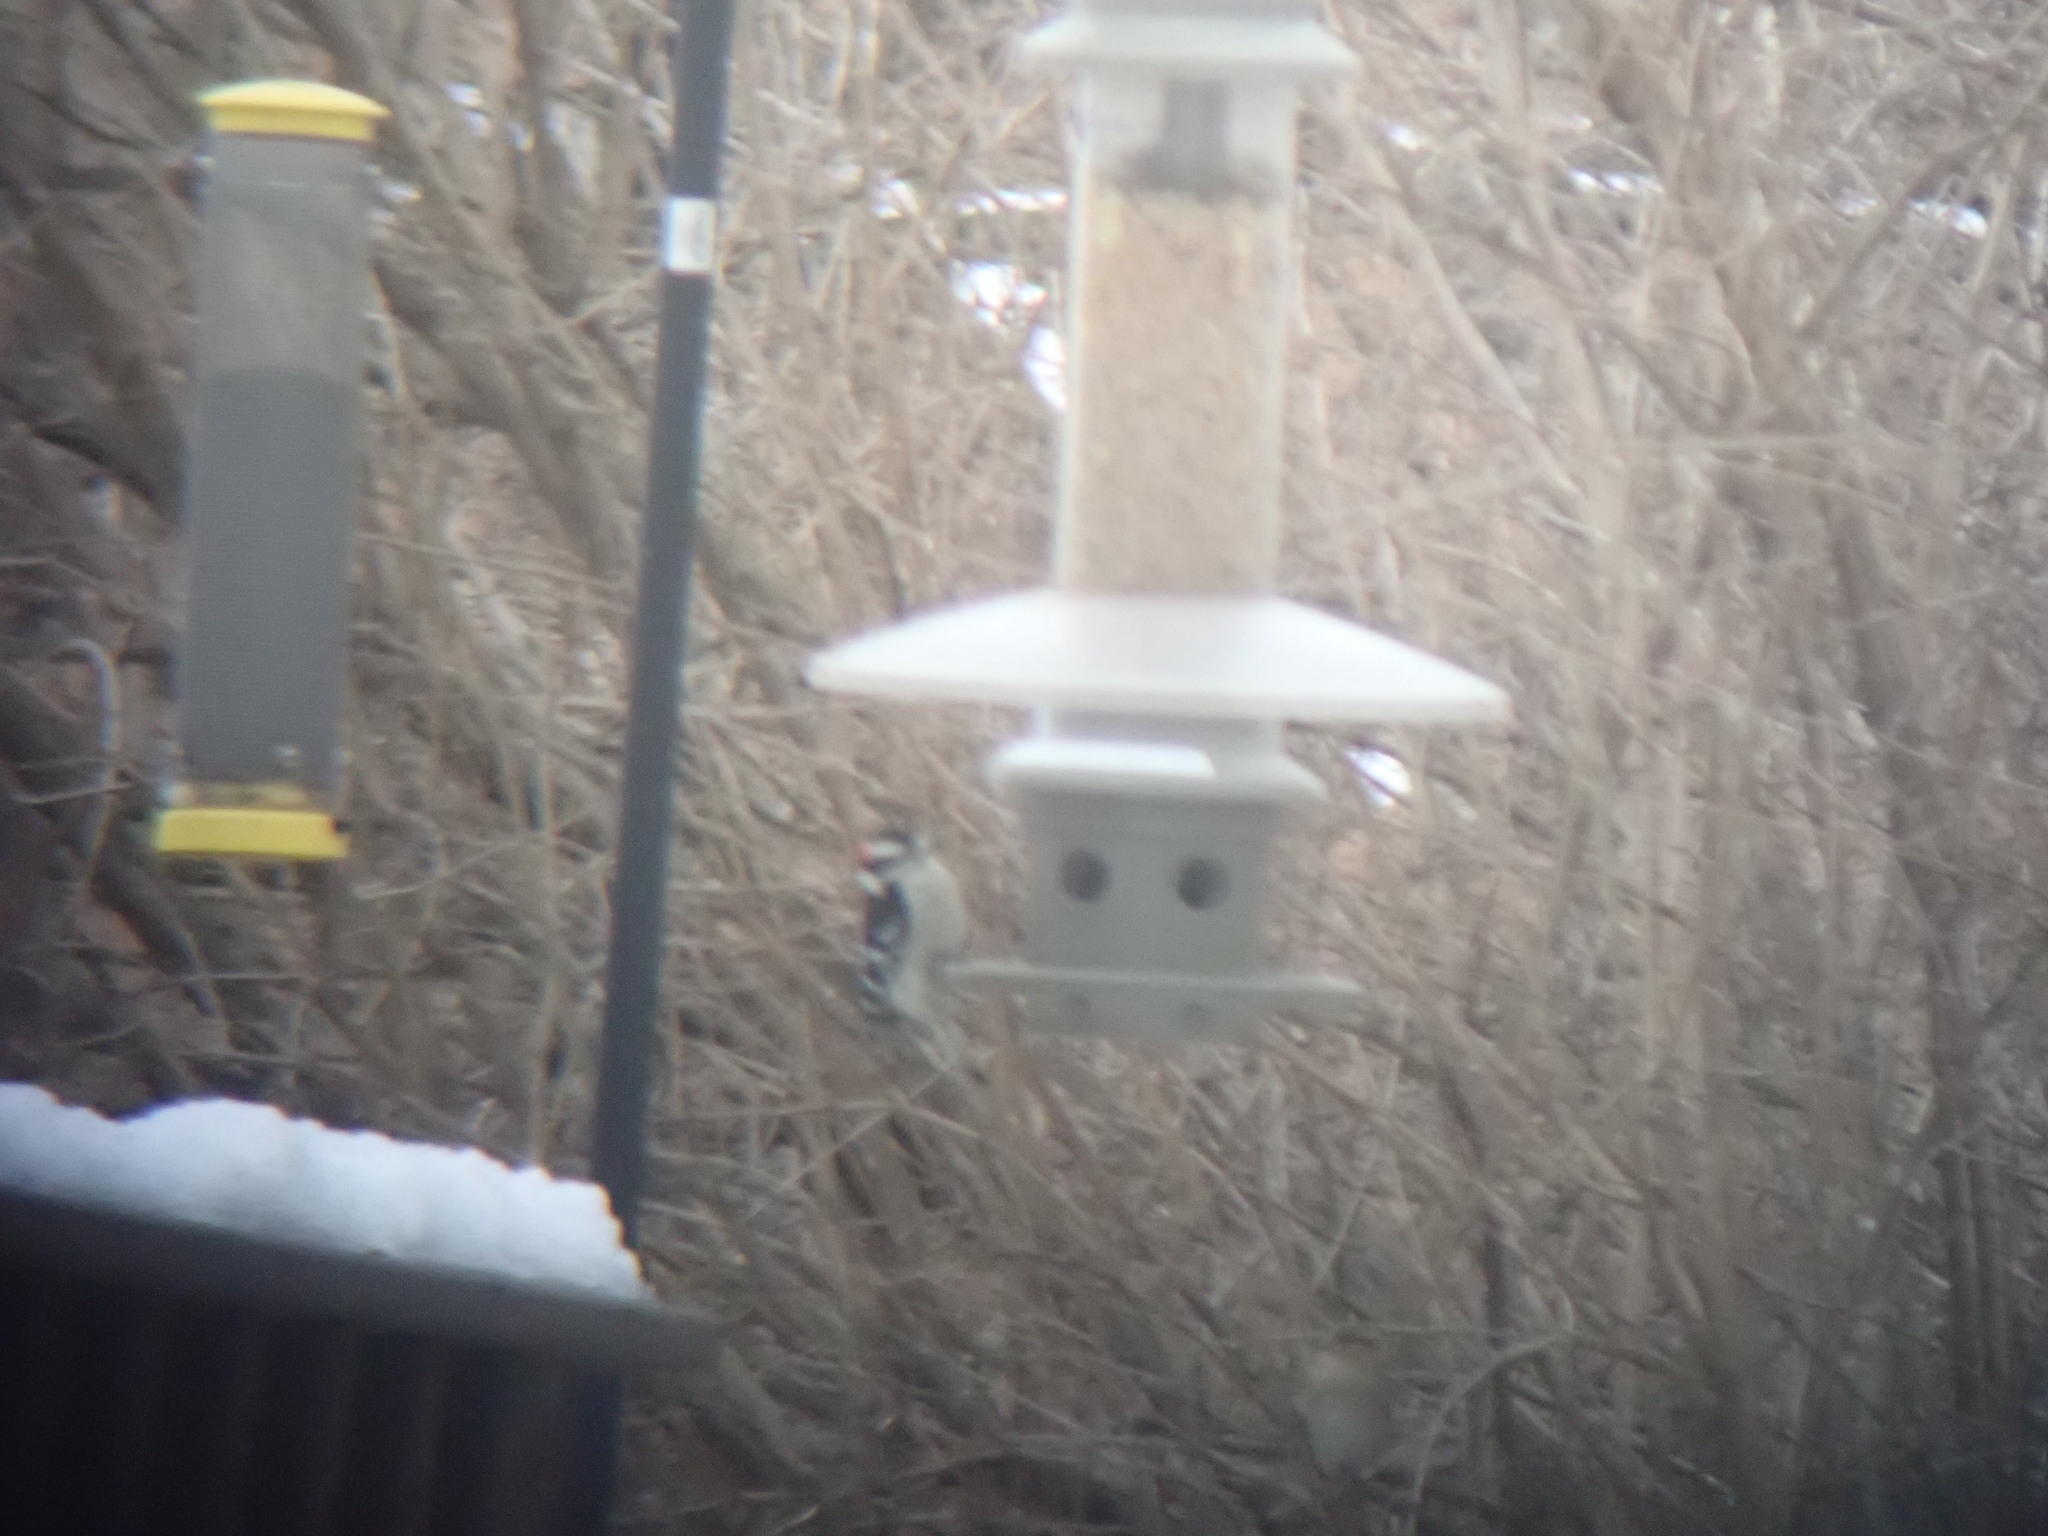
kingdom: Animalia
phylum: Chordata
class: Aves
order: Piciformes
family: Picidae
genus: Dryobates
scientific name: Dryobates pubescens
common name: Downy woodpecker
